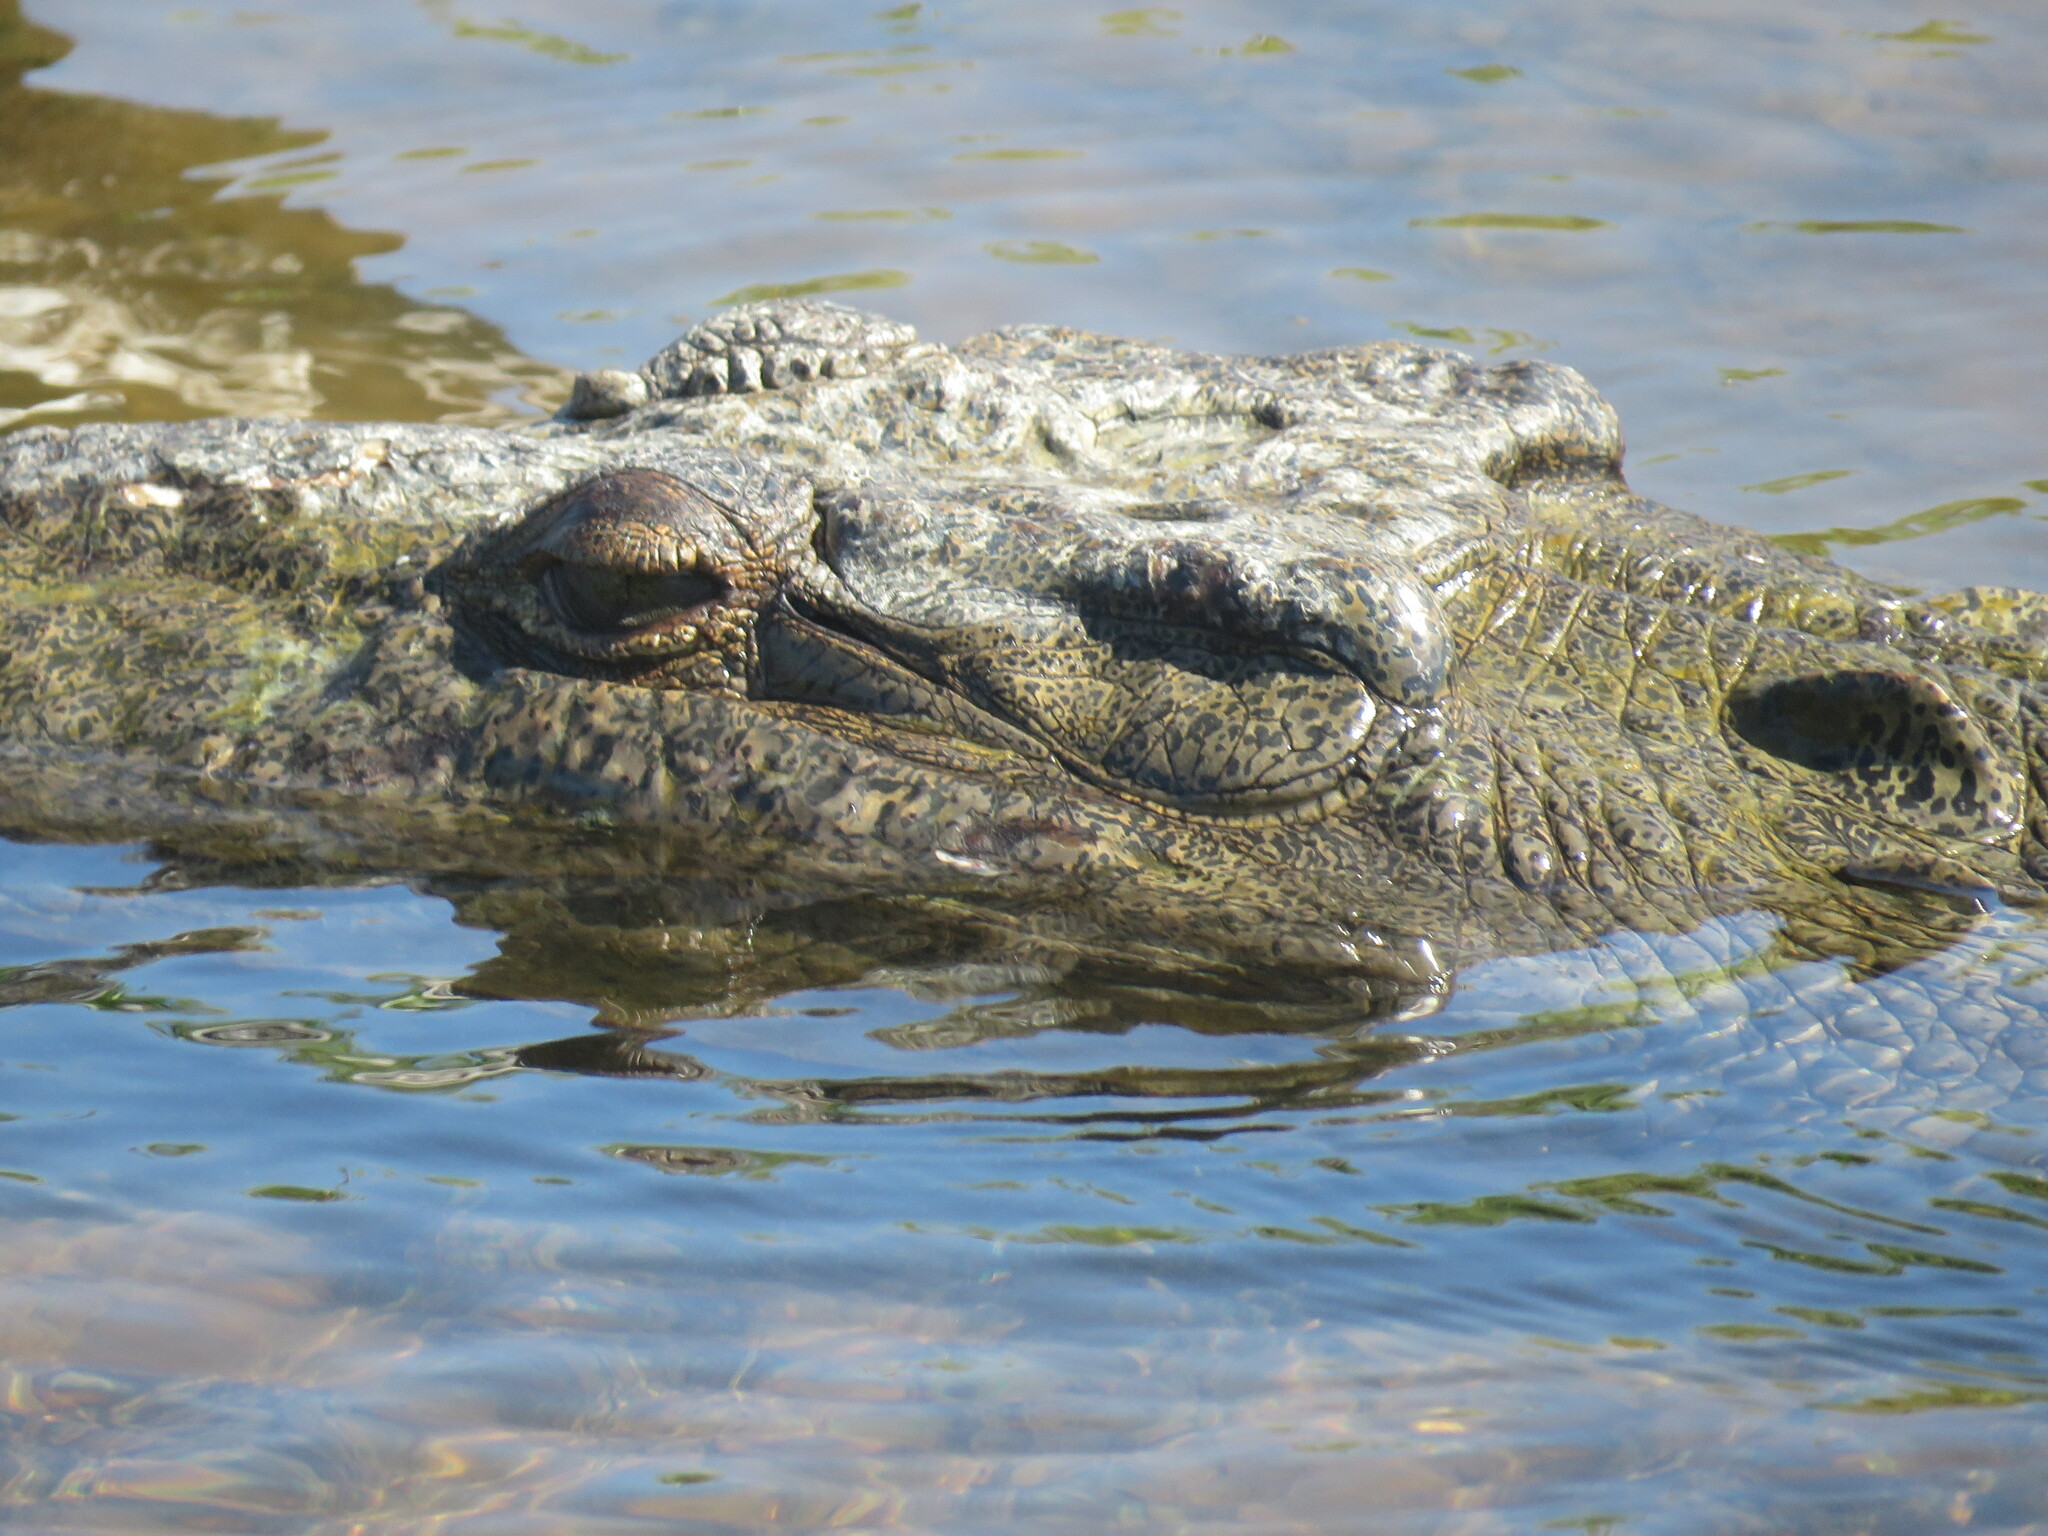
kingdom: Animalia
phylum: Chordata
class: Crocodylia
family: Crocodylidae
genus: Crocodylus
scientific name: Crocodylus acutus
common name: American crocodile
